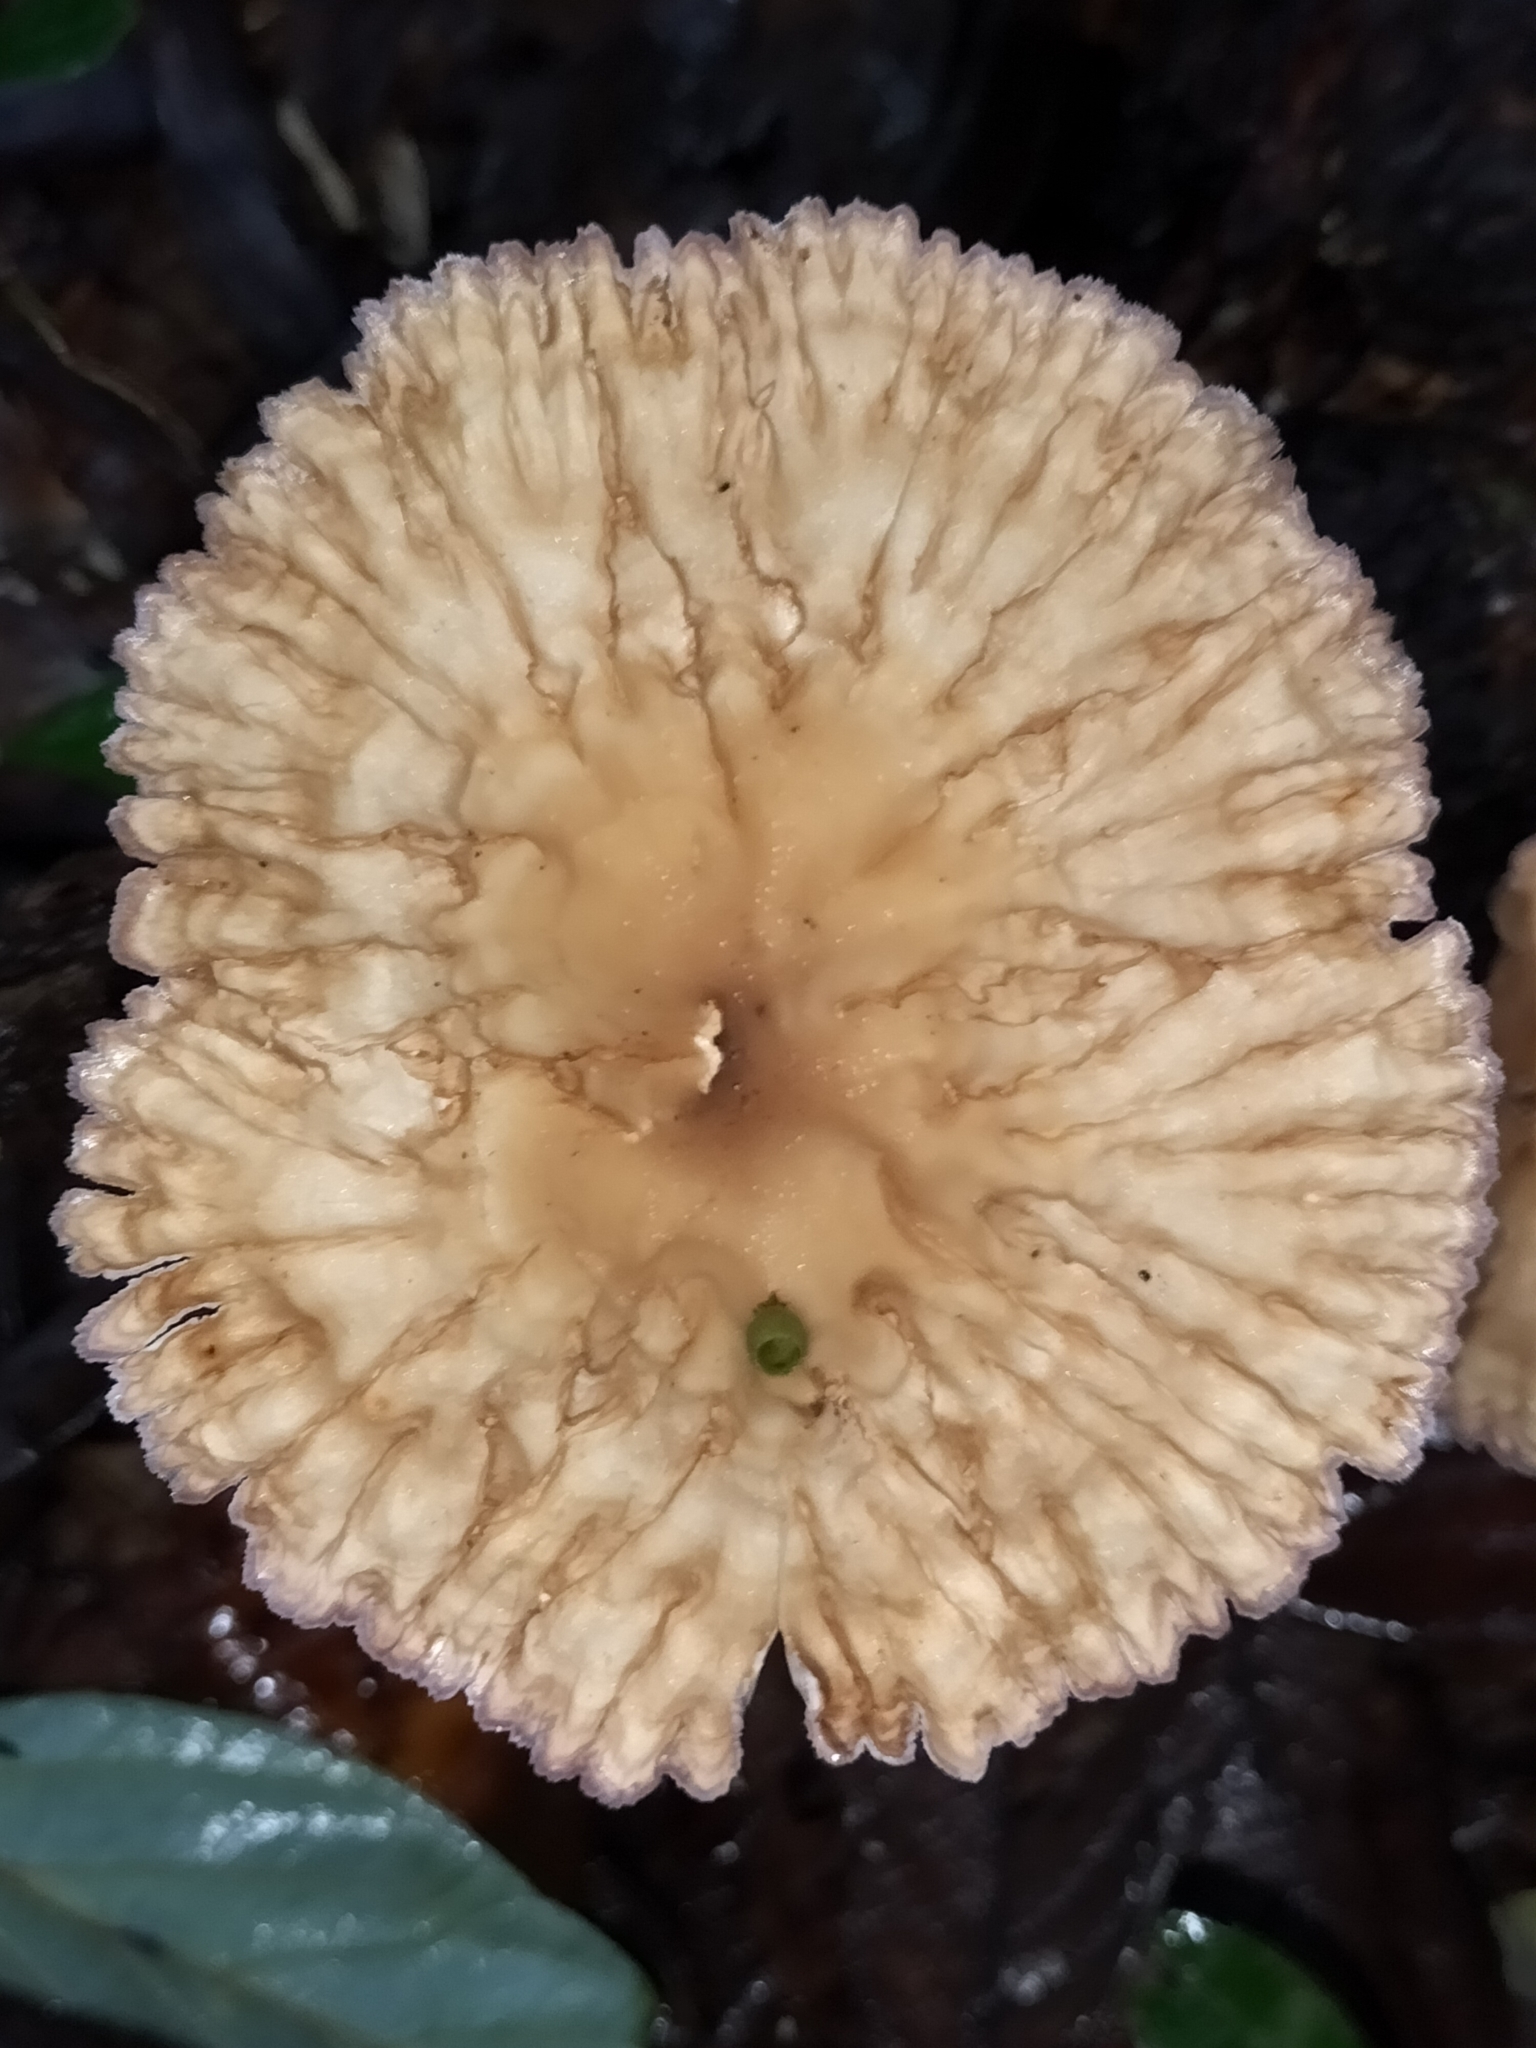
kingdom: Fungi
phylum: Basidiomycota
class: Agaricomycetes
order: Polyporales
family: Panaceae
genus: Cymatoderma
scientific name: Cymatoderma elegans
